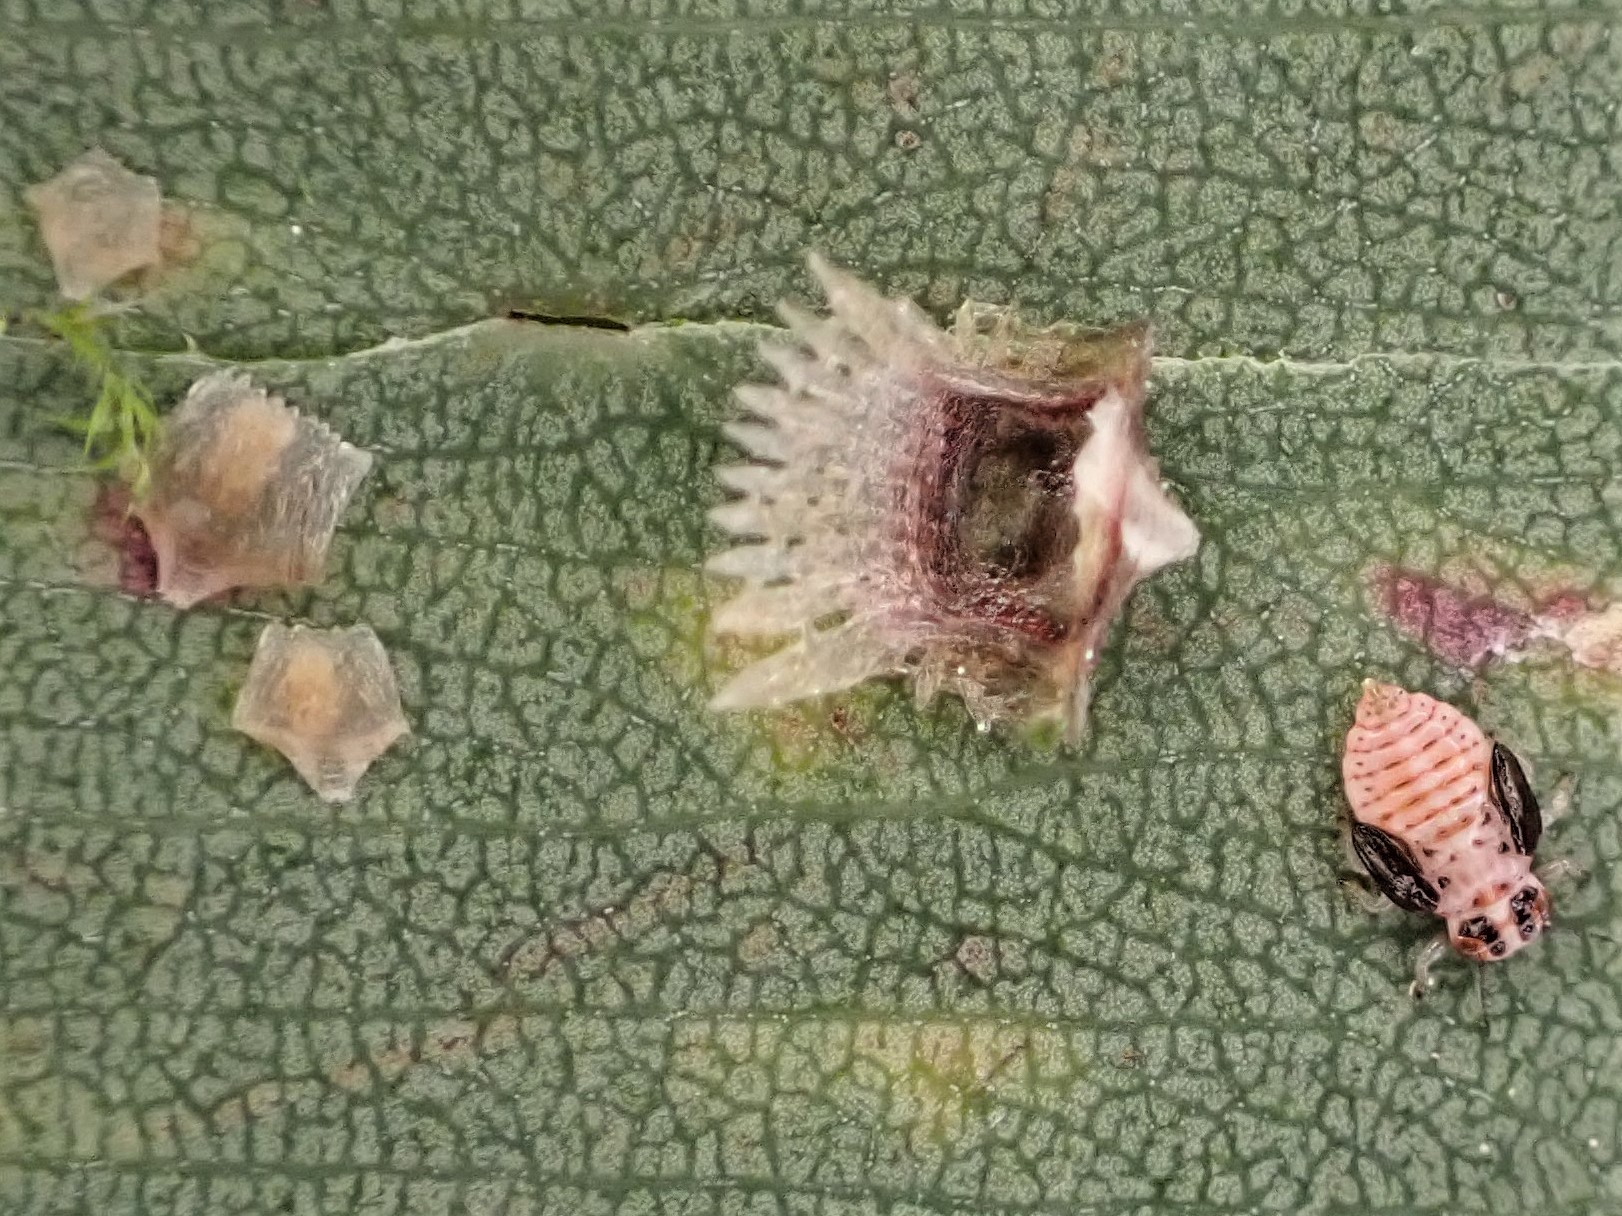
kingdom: Animalia
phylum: Arthropoda
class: Insecta
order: Hemiptera
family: Aphalaridae
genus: Cardiaspina
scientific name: Cardiaspina fiscella
